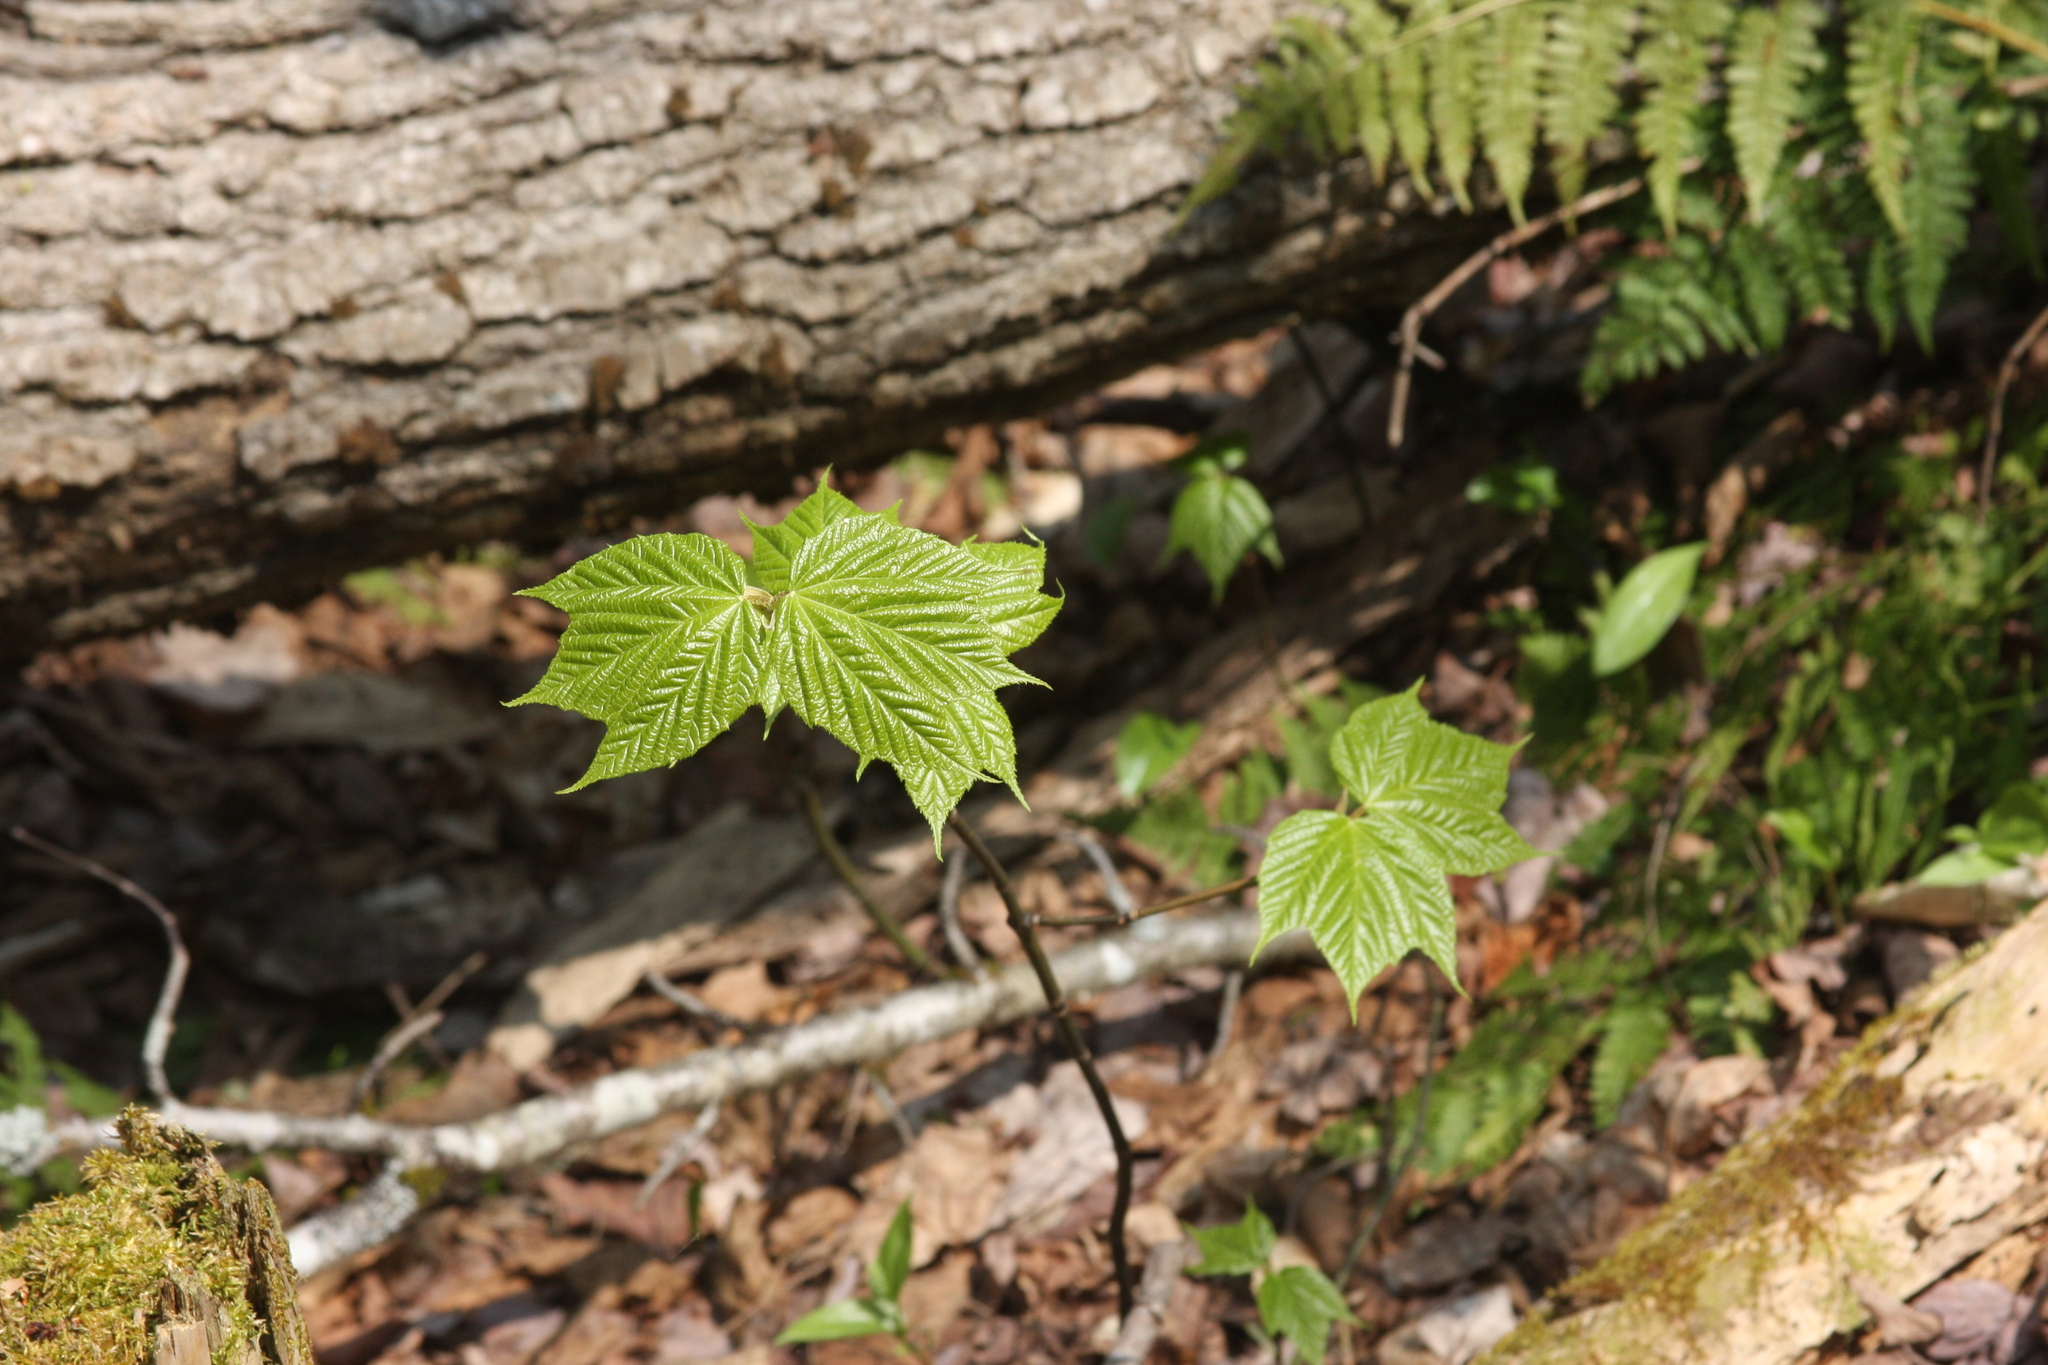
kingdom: Plantae
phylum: Tracheophyta
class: Magnoliopsida
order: Sapindales
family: Sapindaceae
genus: Acer
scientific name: Acer pensylvanicum
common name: Moosewood
